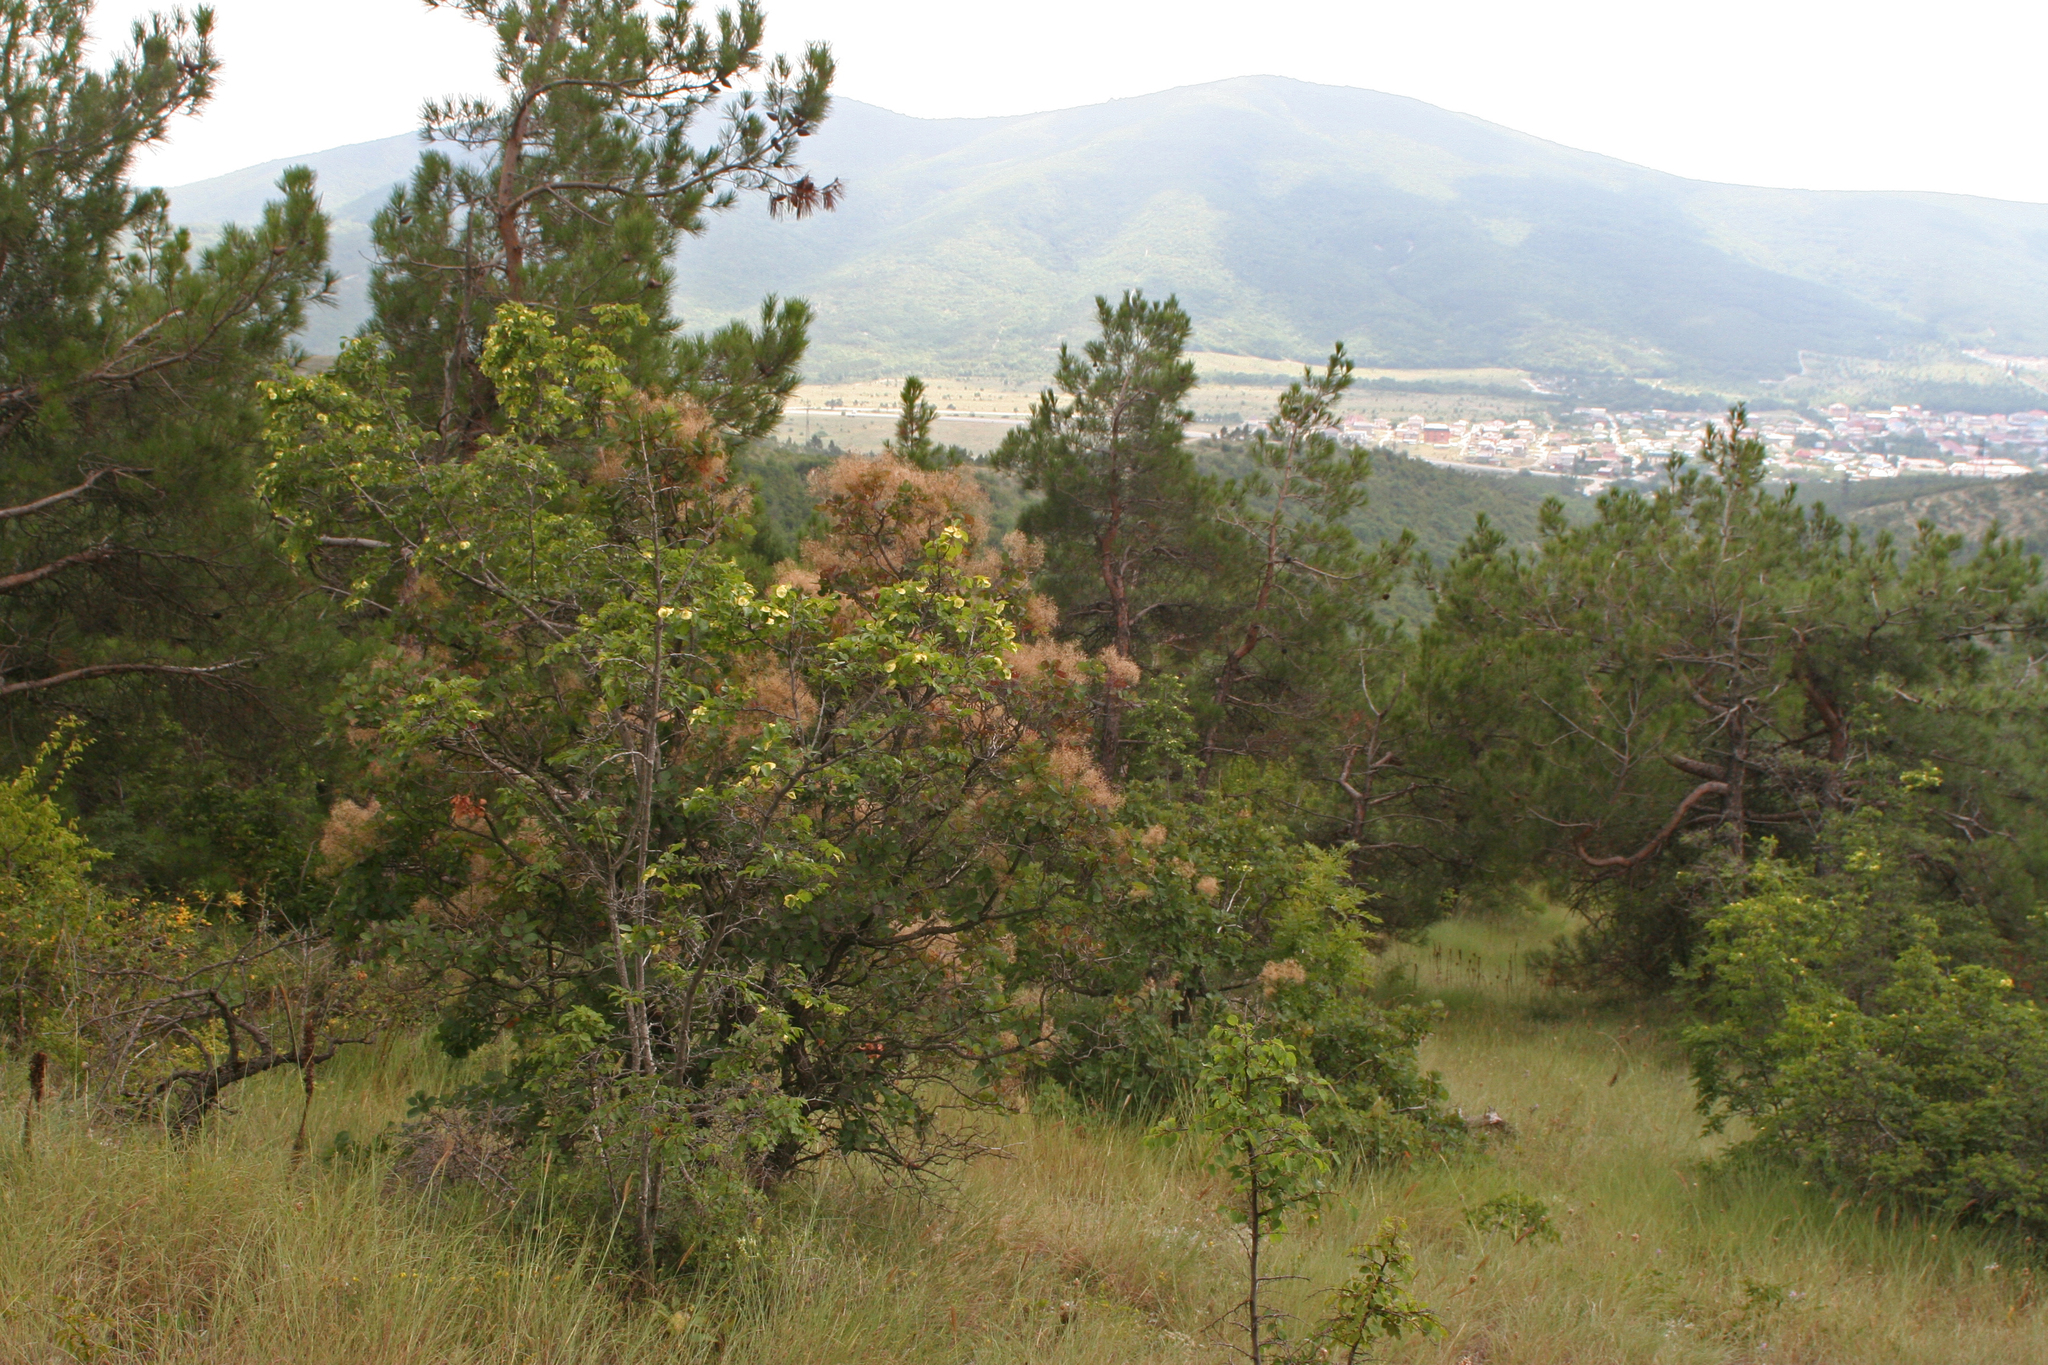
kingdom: Plantae
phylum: Tracheophyta
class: Pinopsida
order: Pinales
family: Pinaceae
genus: Pinus
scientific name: Pinus brutia
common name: Turkish pine
